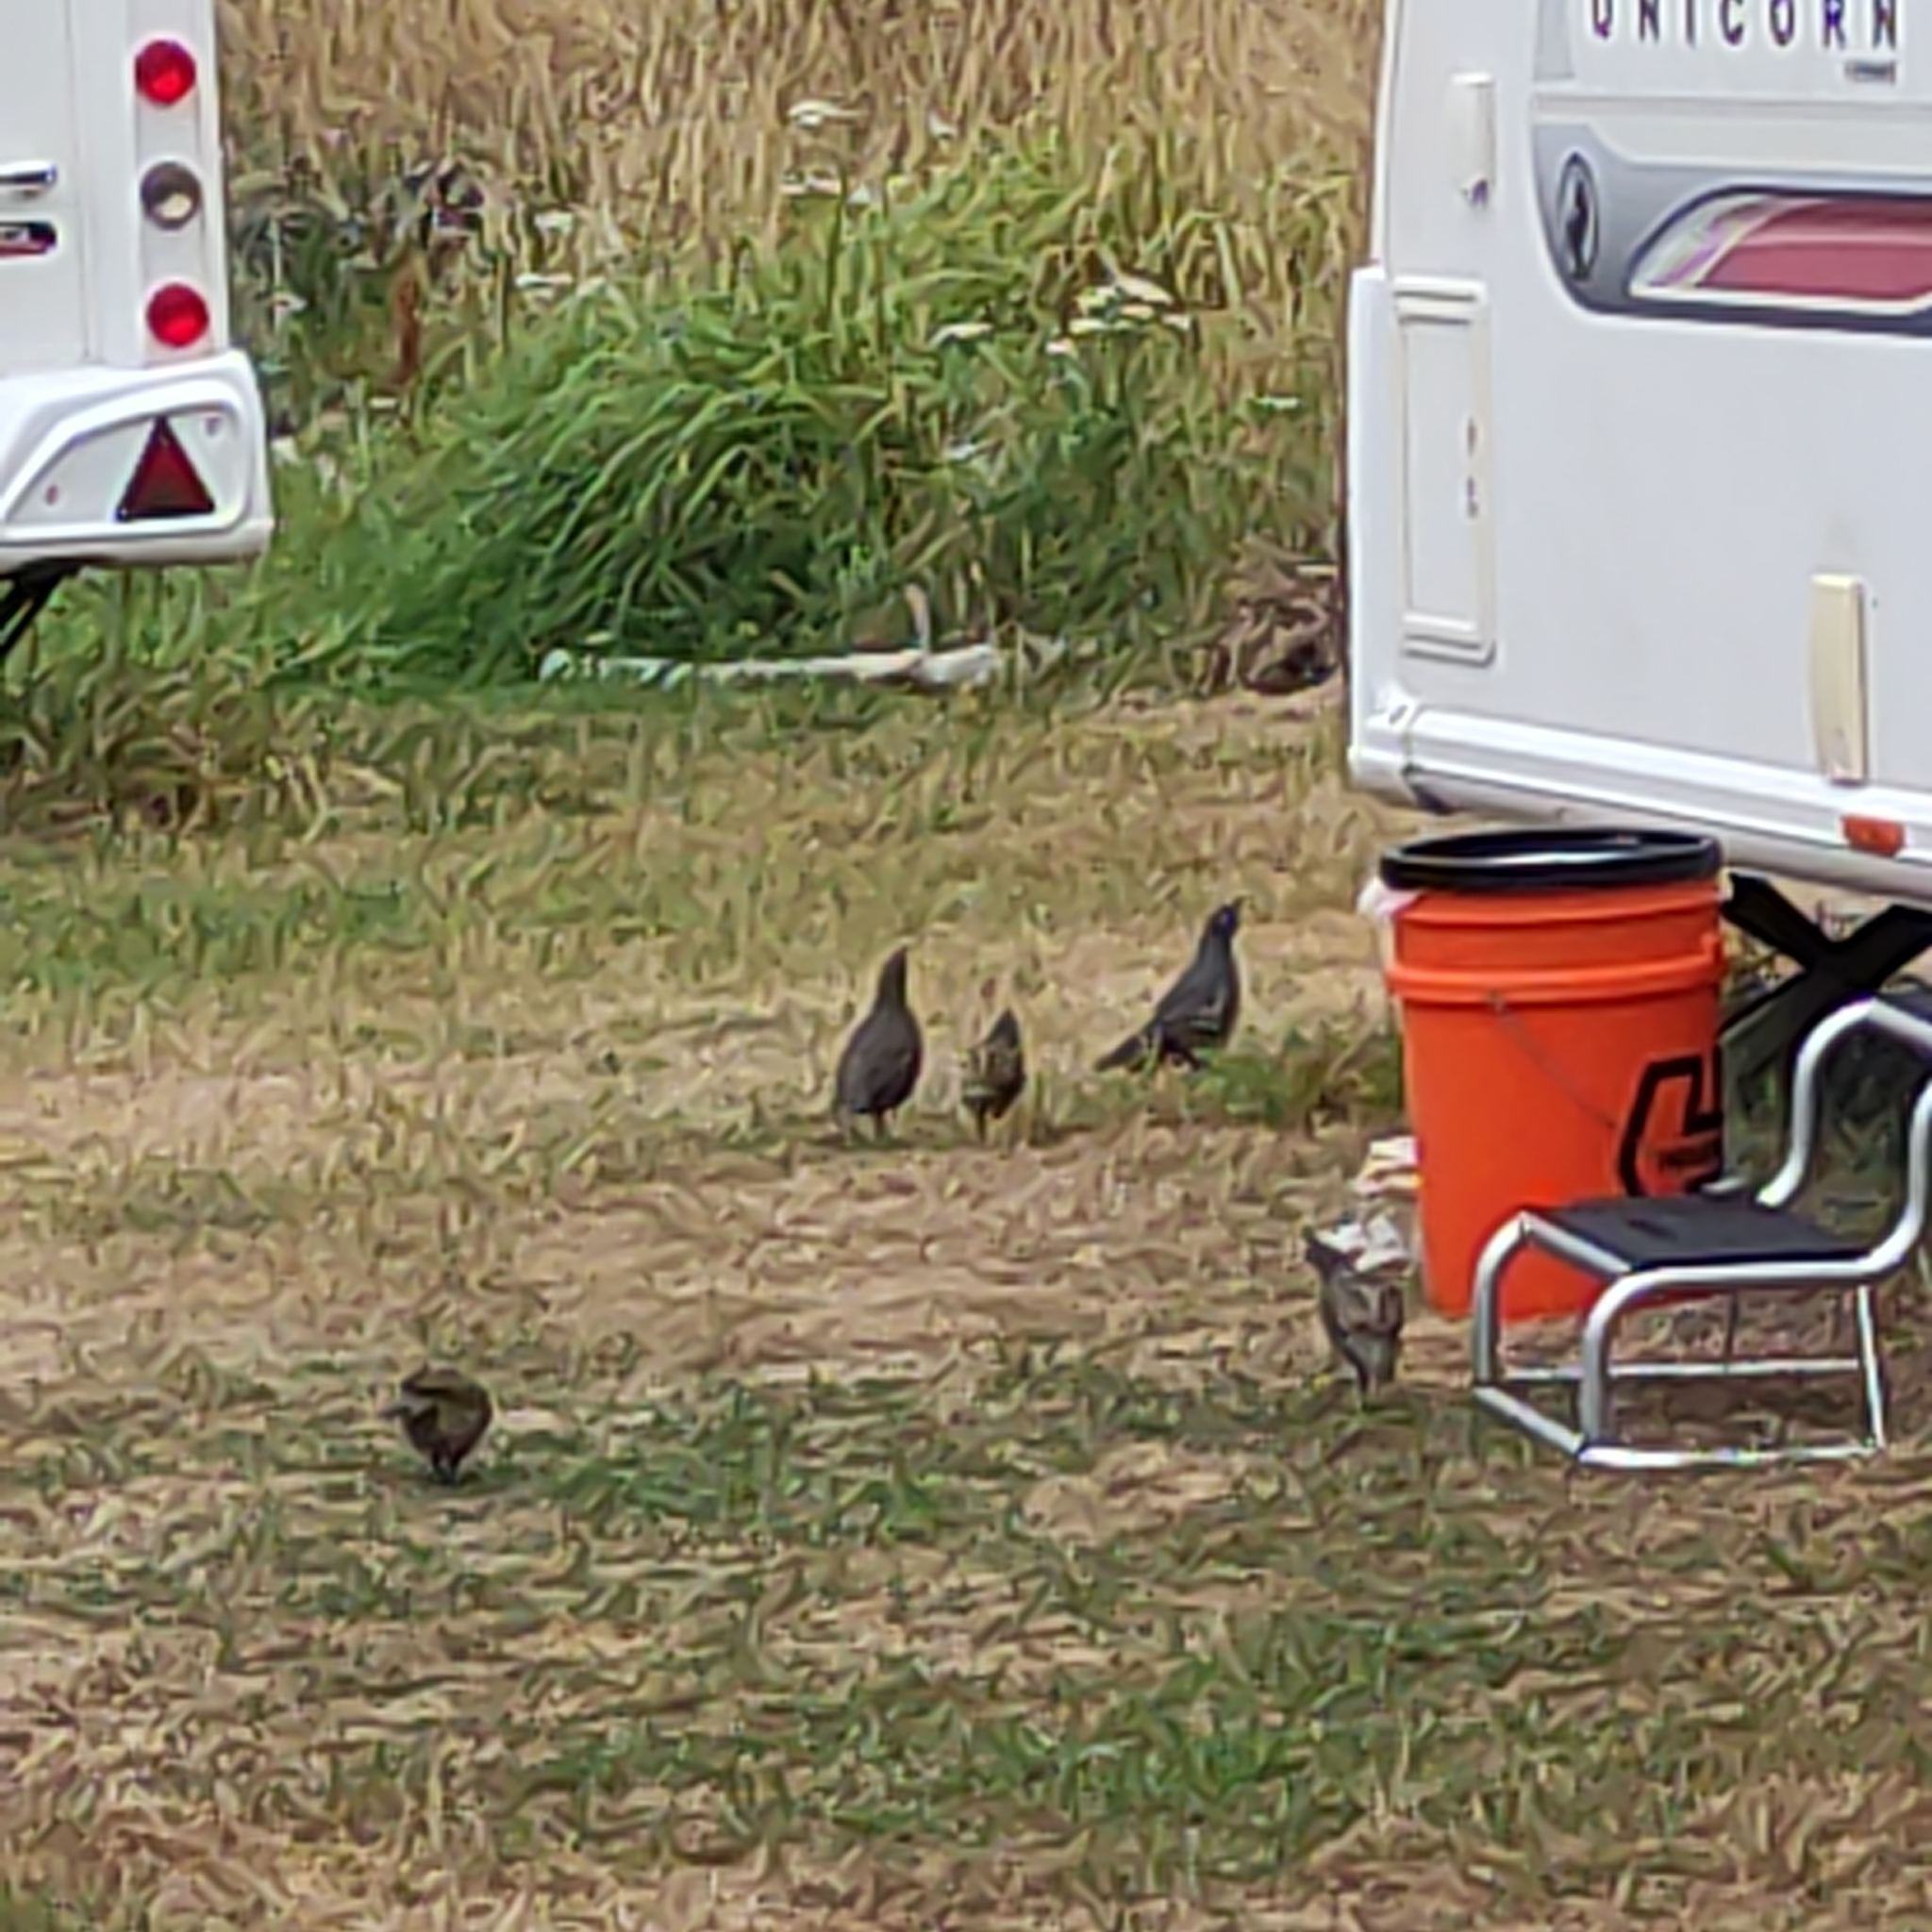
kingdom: Animalia
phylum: Chordata
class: Aves
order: Galliformes
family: Odontophoridae
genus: Callipepla
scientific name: Callipepla californica
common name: California quail
